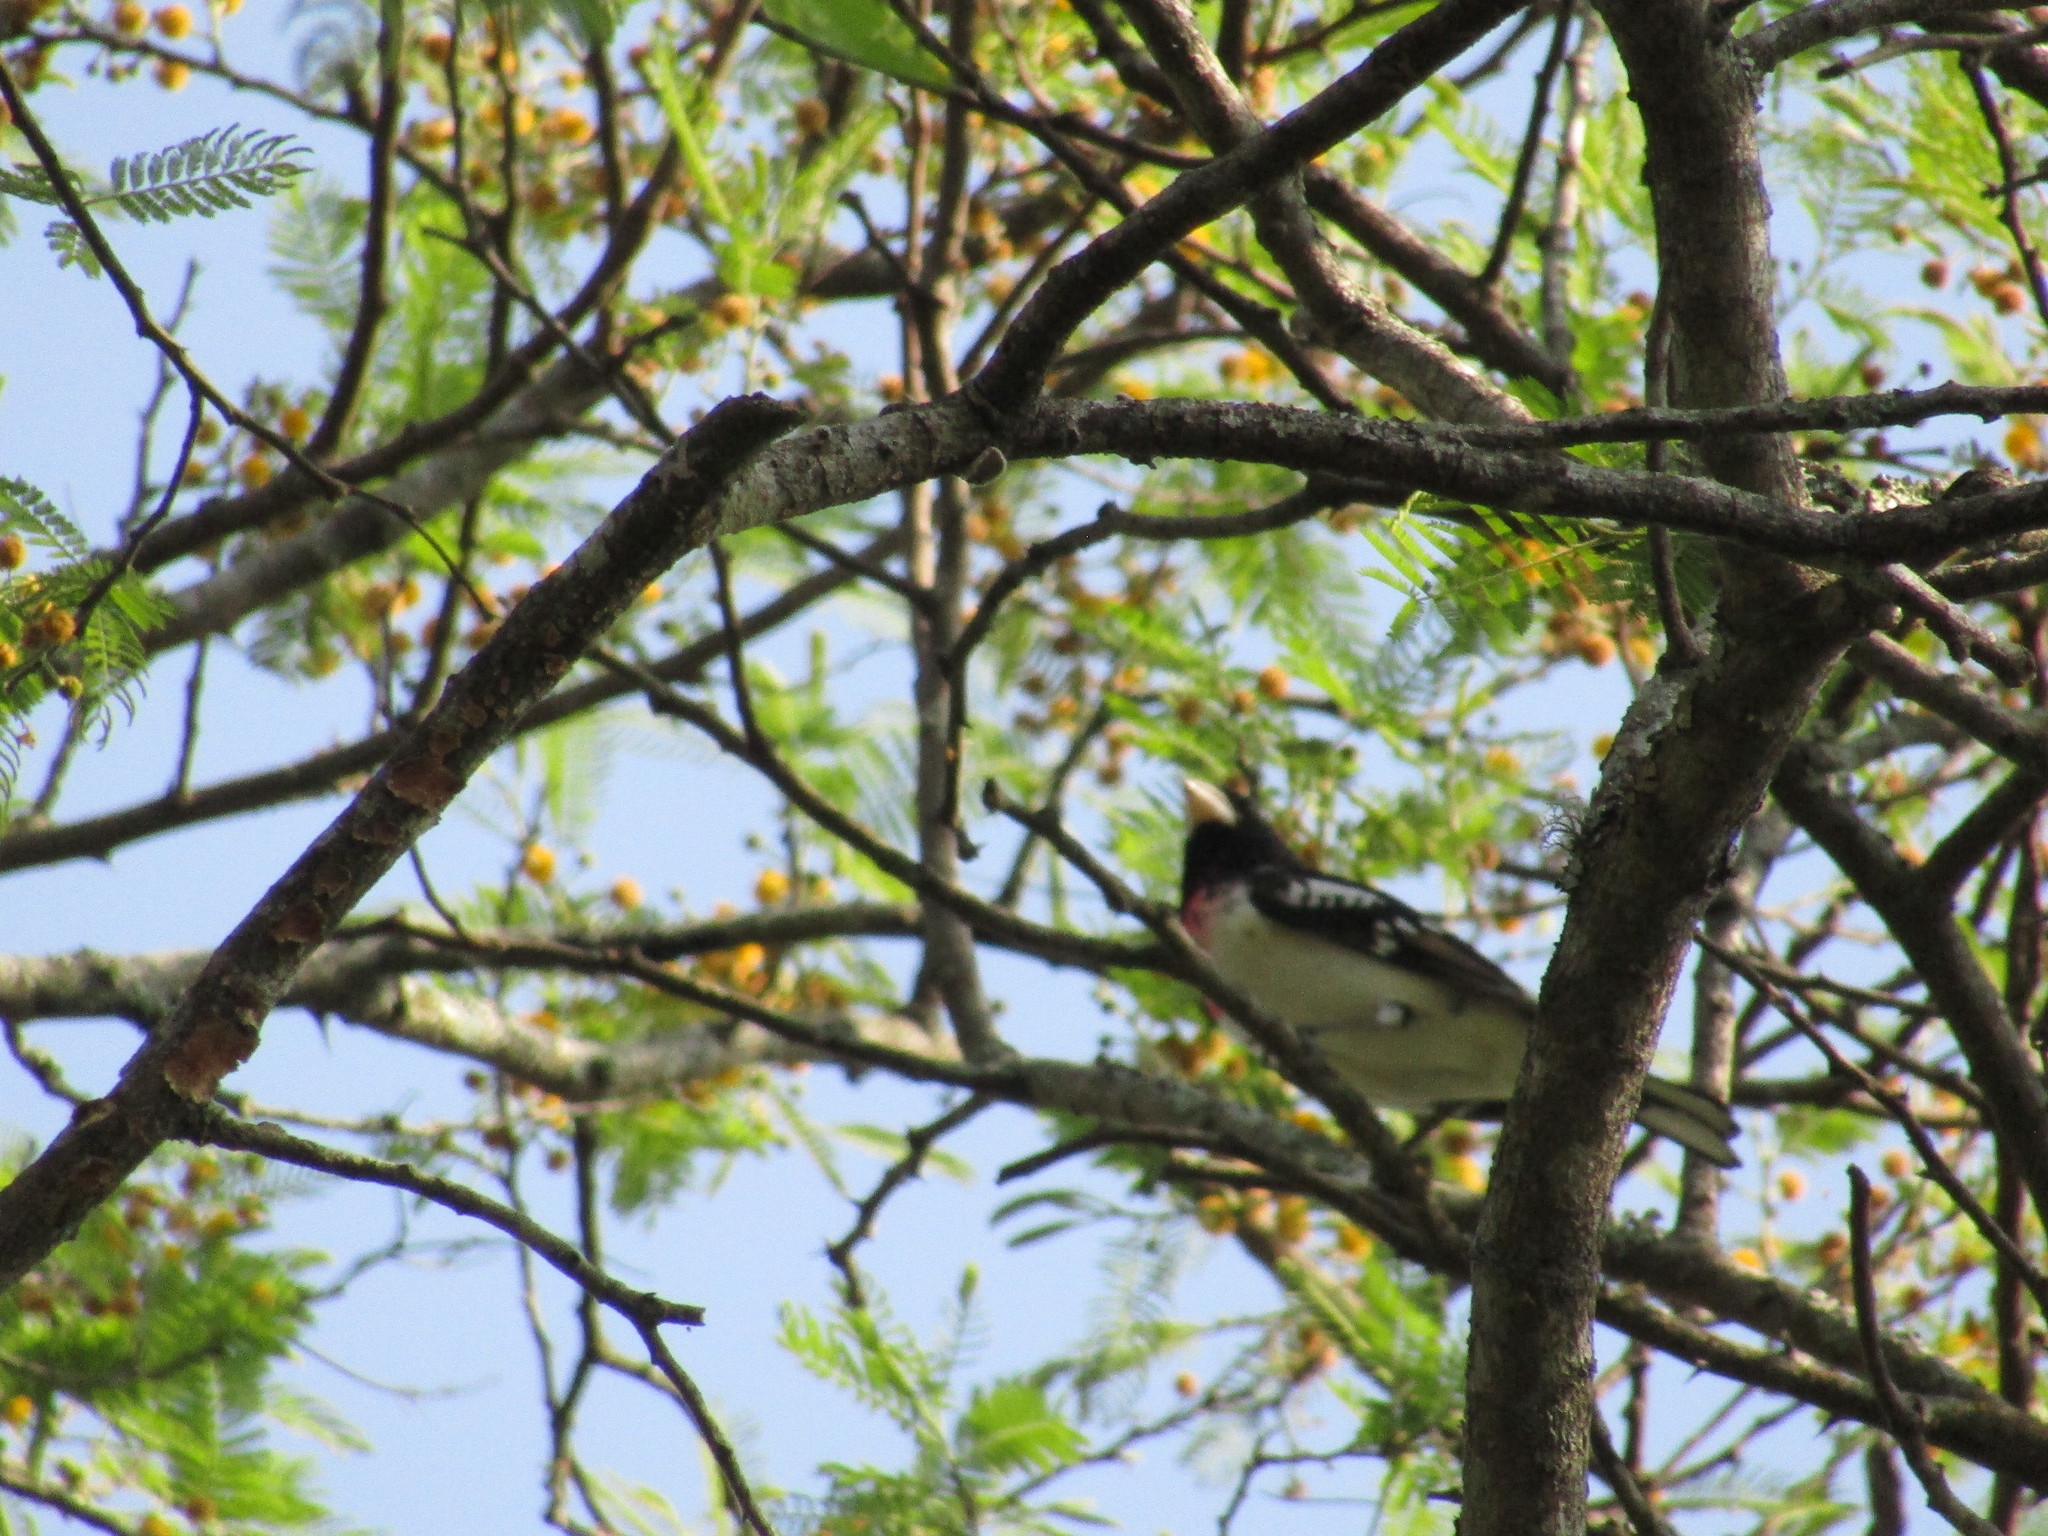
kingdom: Animalia
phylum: Chordata
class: Aves
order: Passeriformes
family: Cardinalidae
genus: Pheucticus
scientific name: Pheucticus ludovicianus
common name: Rose-breasted grosbeak
